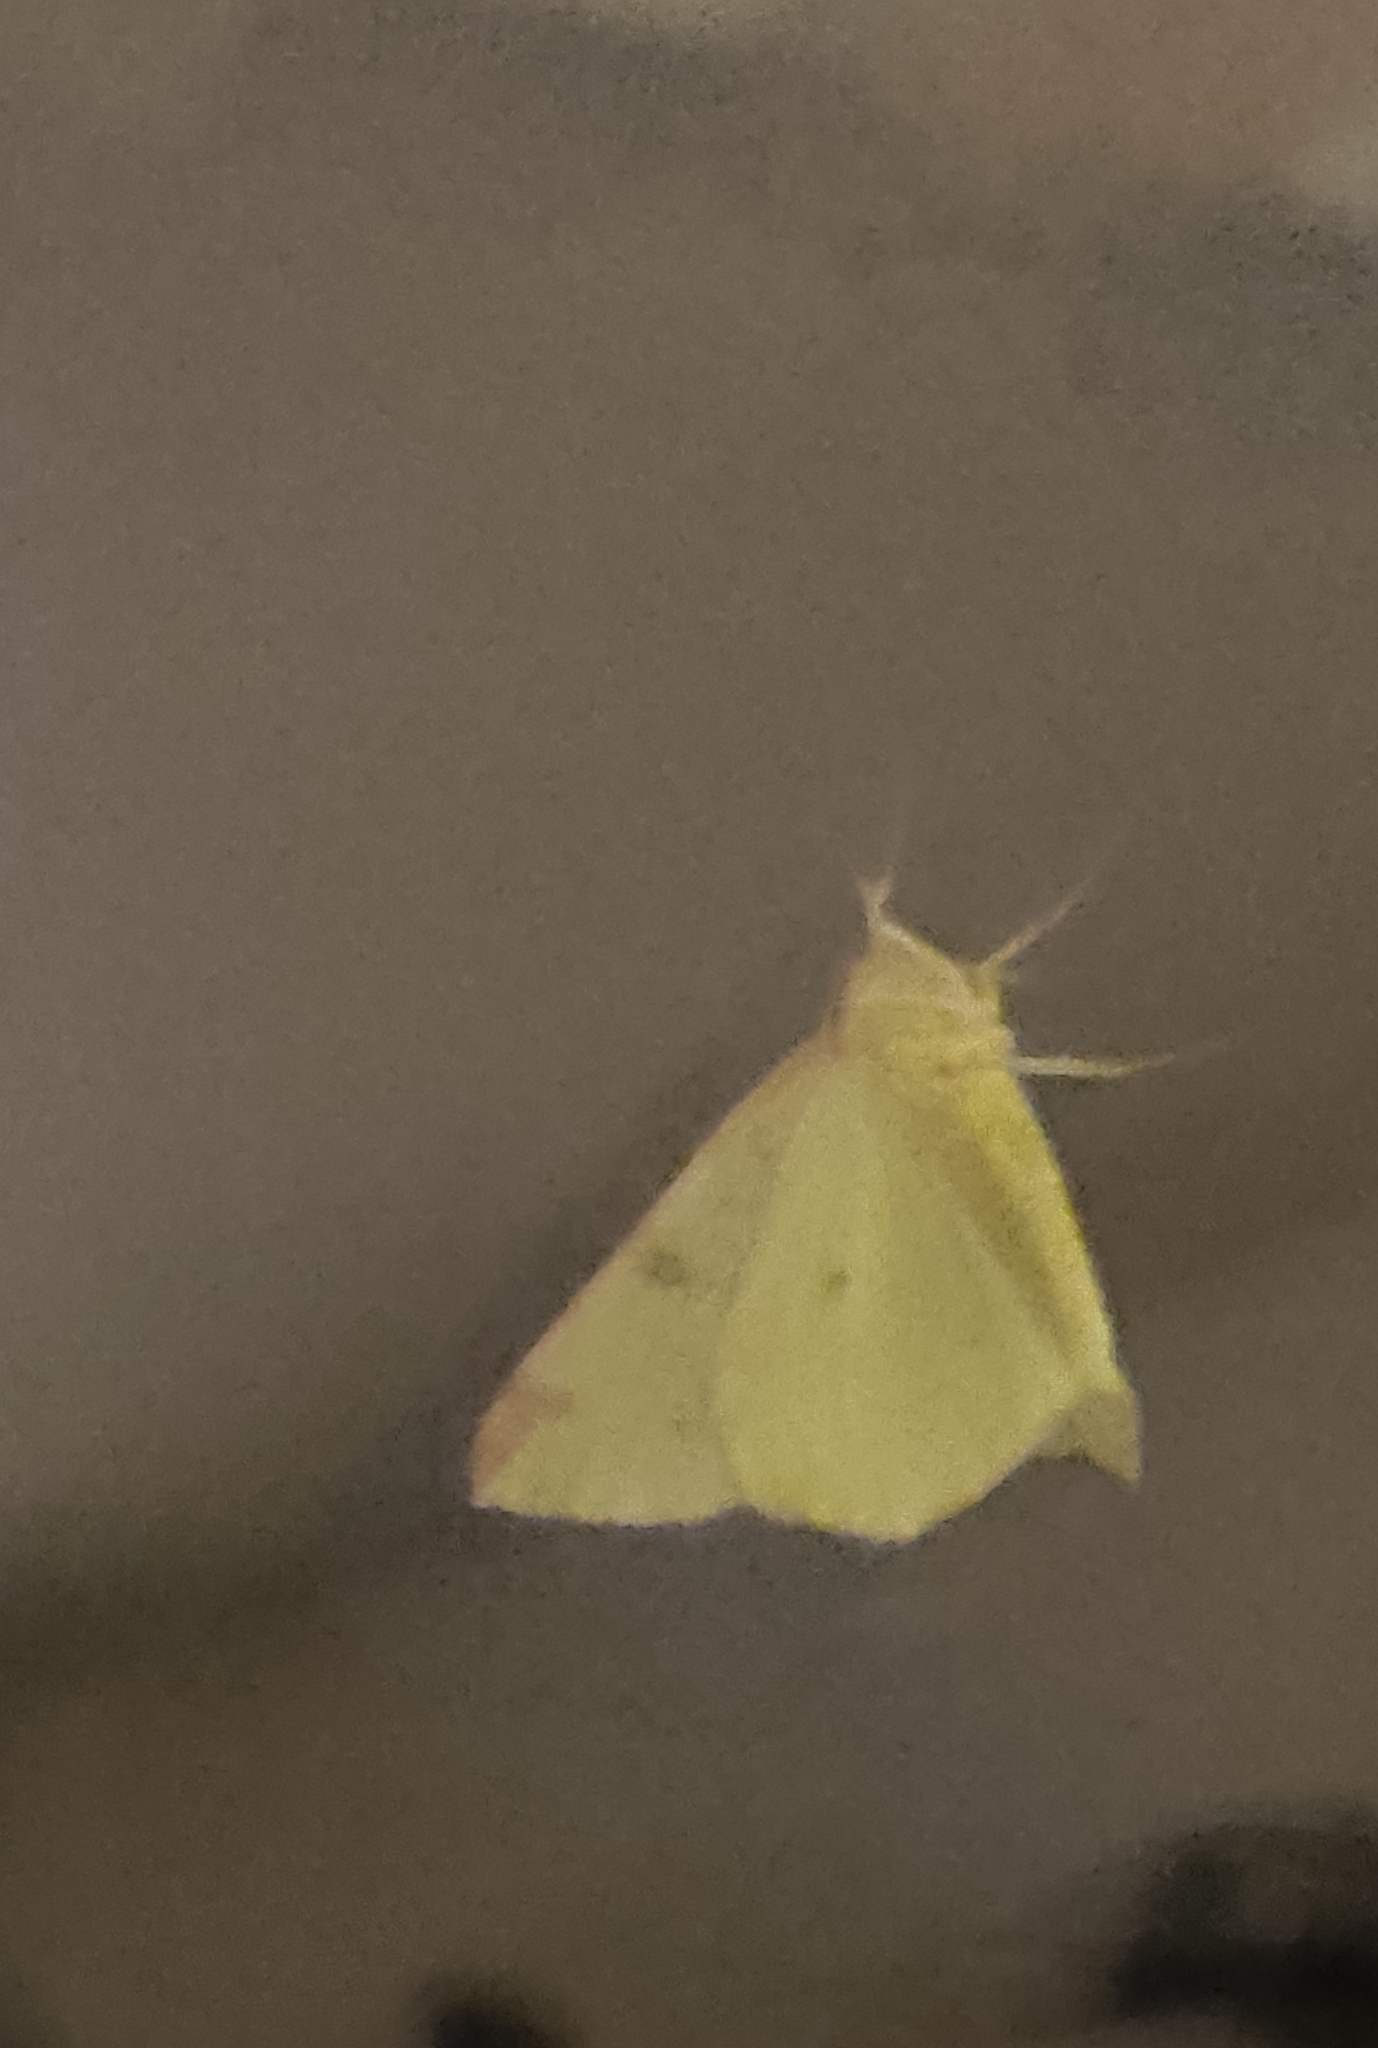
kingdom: Animalia
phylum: Arthropoda
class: Insecta
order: Lepidoptera
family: Geometridae
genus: Opisthograptis
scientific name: Opisthograptis luteolata
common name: Brimstone moth
